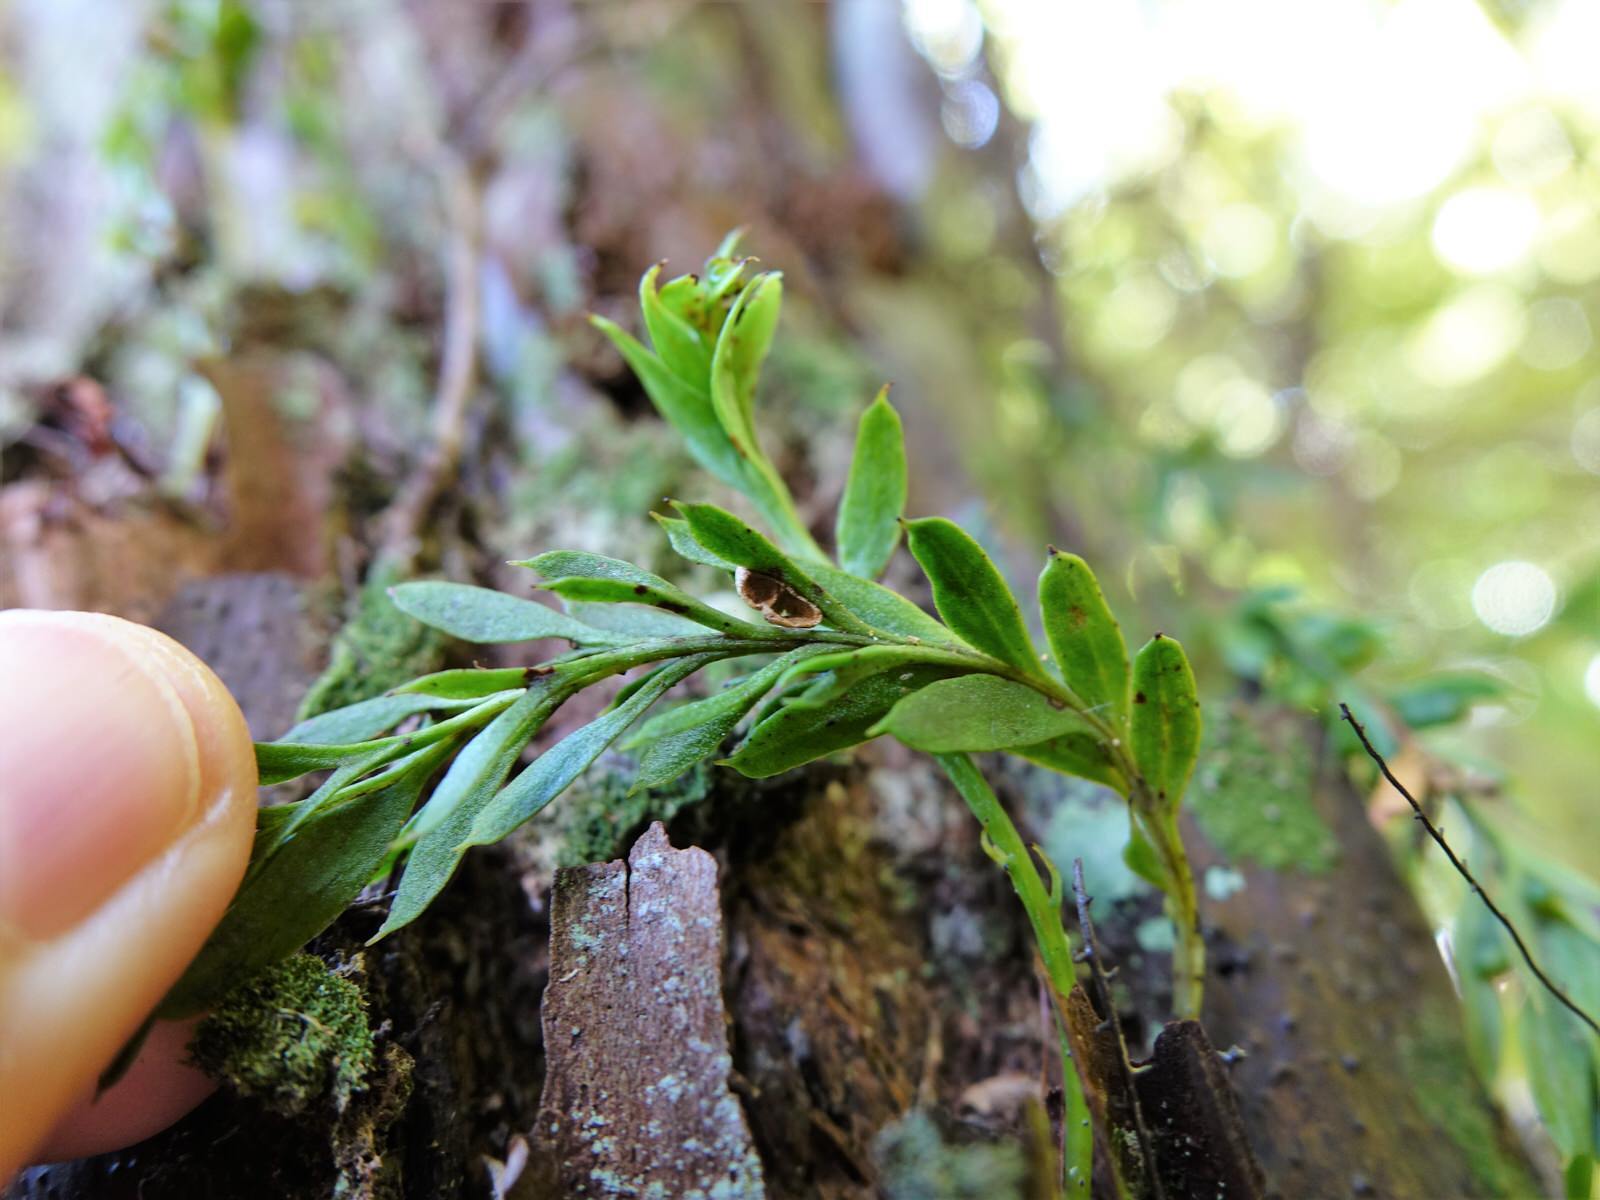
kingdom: Plantae
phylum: Tracheophyta
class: Polypodiopsida
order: Psilotales
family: Psilotaceae
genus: Tmesipteris
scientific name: Tmesipteris elongata
